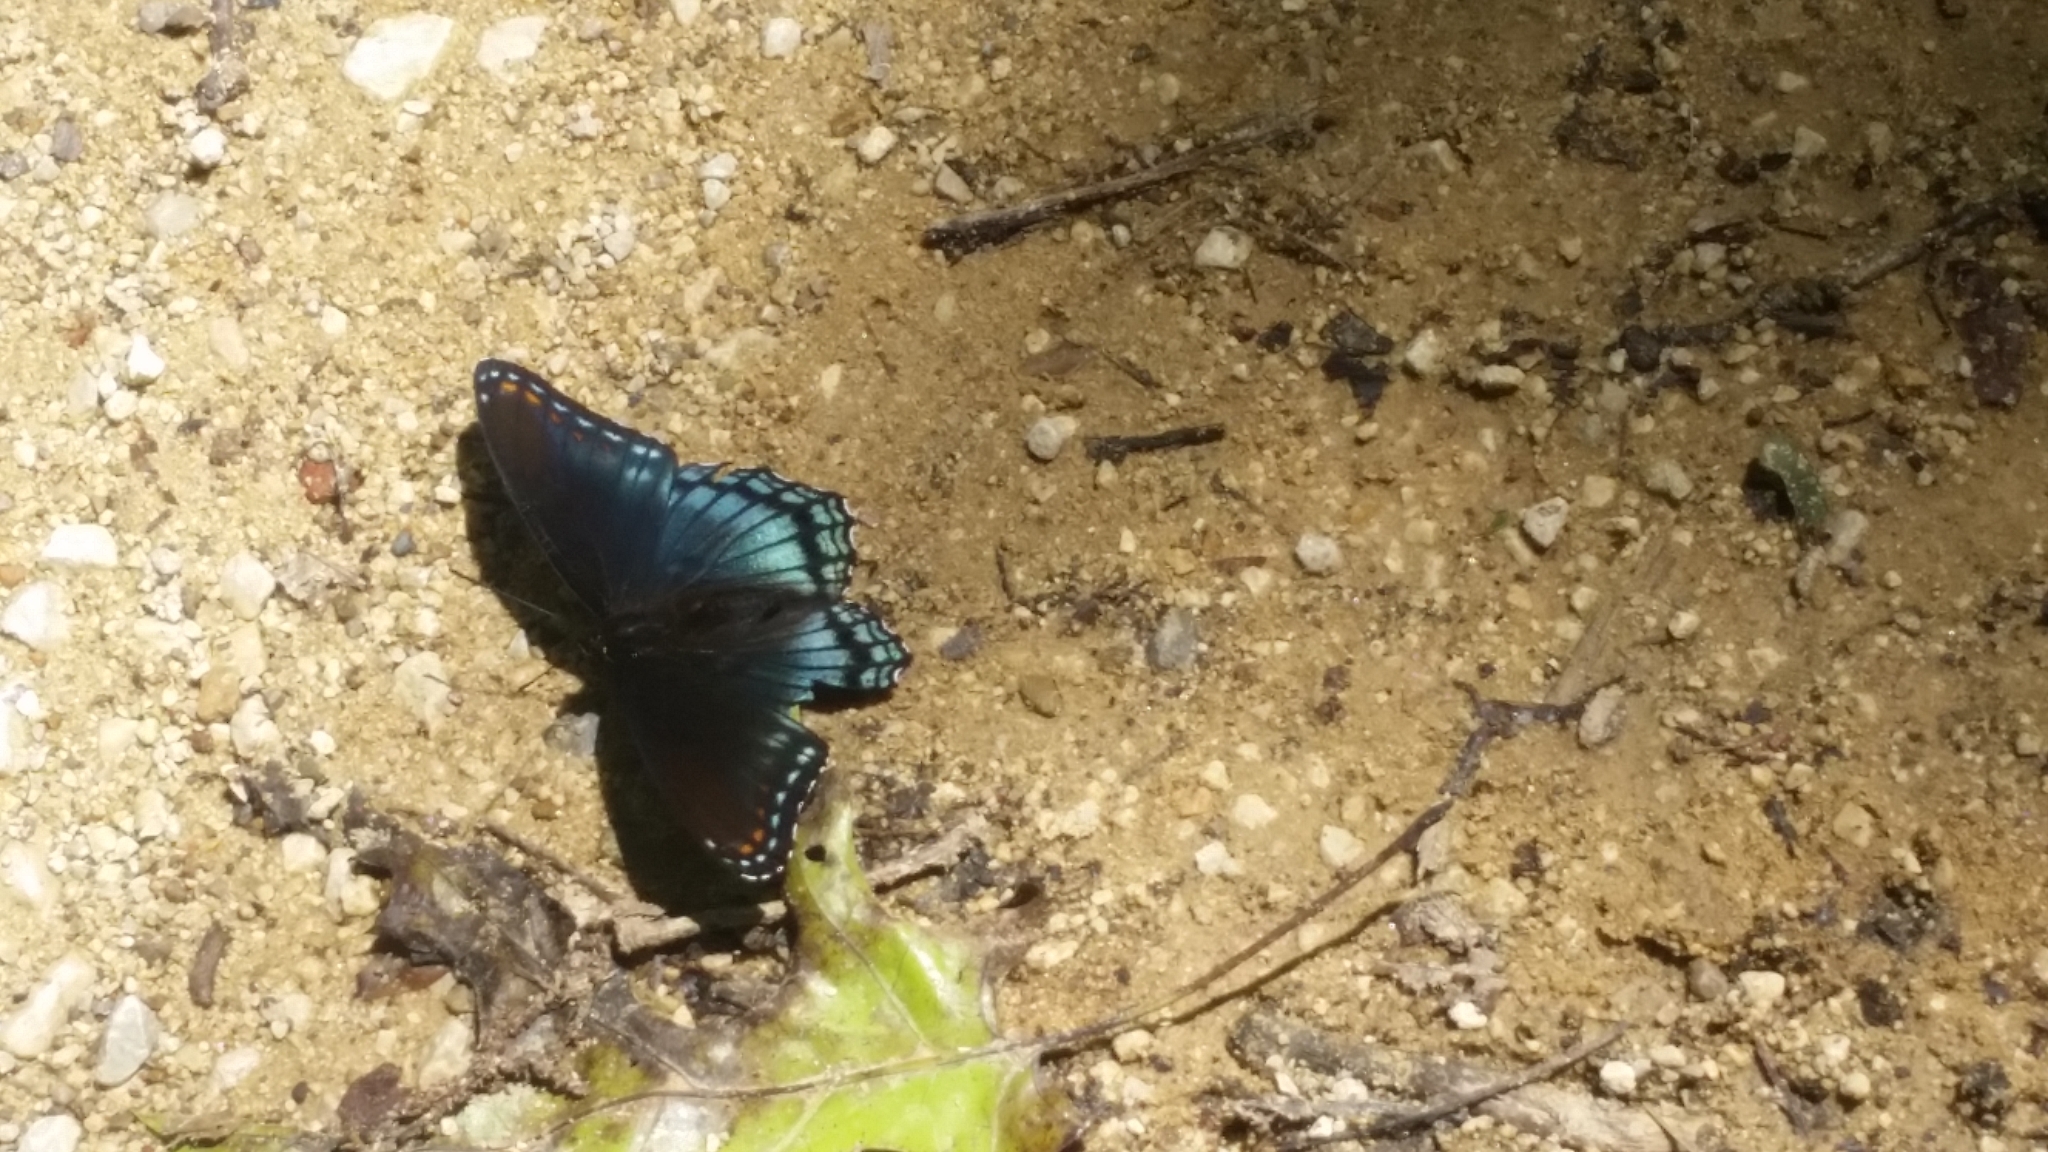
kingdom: Animalia
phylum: Arthropoda
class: Insecta
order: Lepidoptera
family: Nymphalidae
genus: Limenitis
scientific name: Limenitis arthemis
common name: Red-spotted admiral
